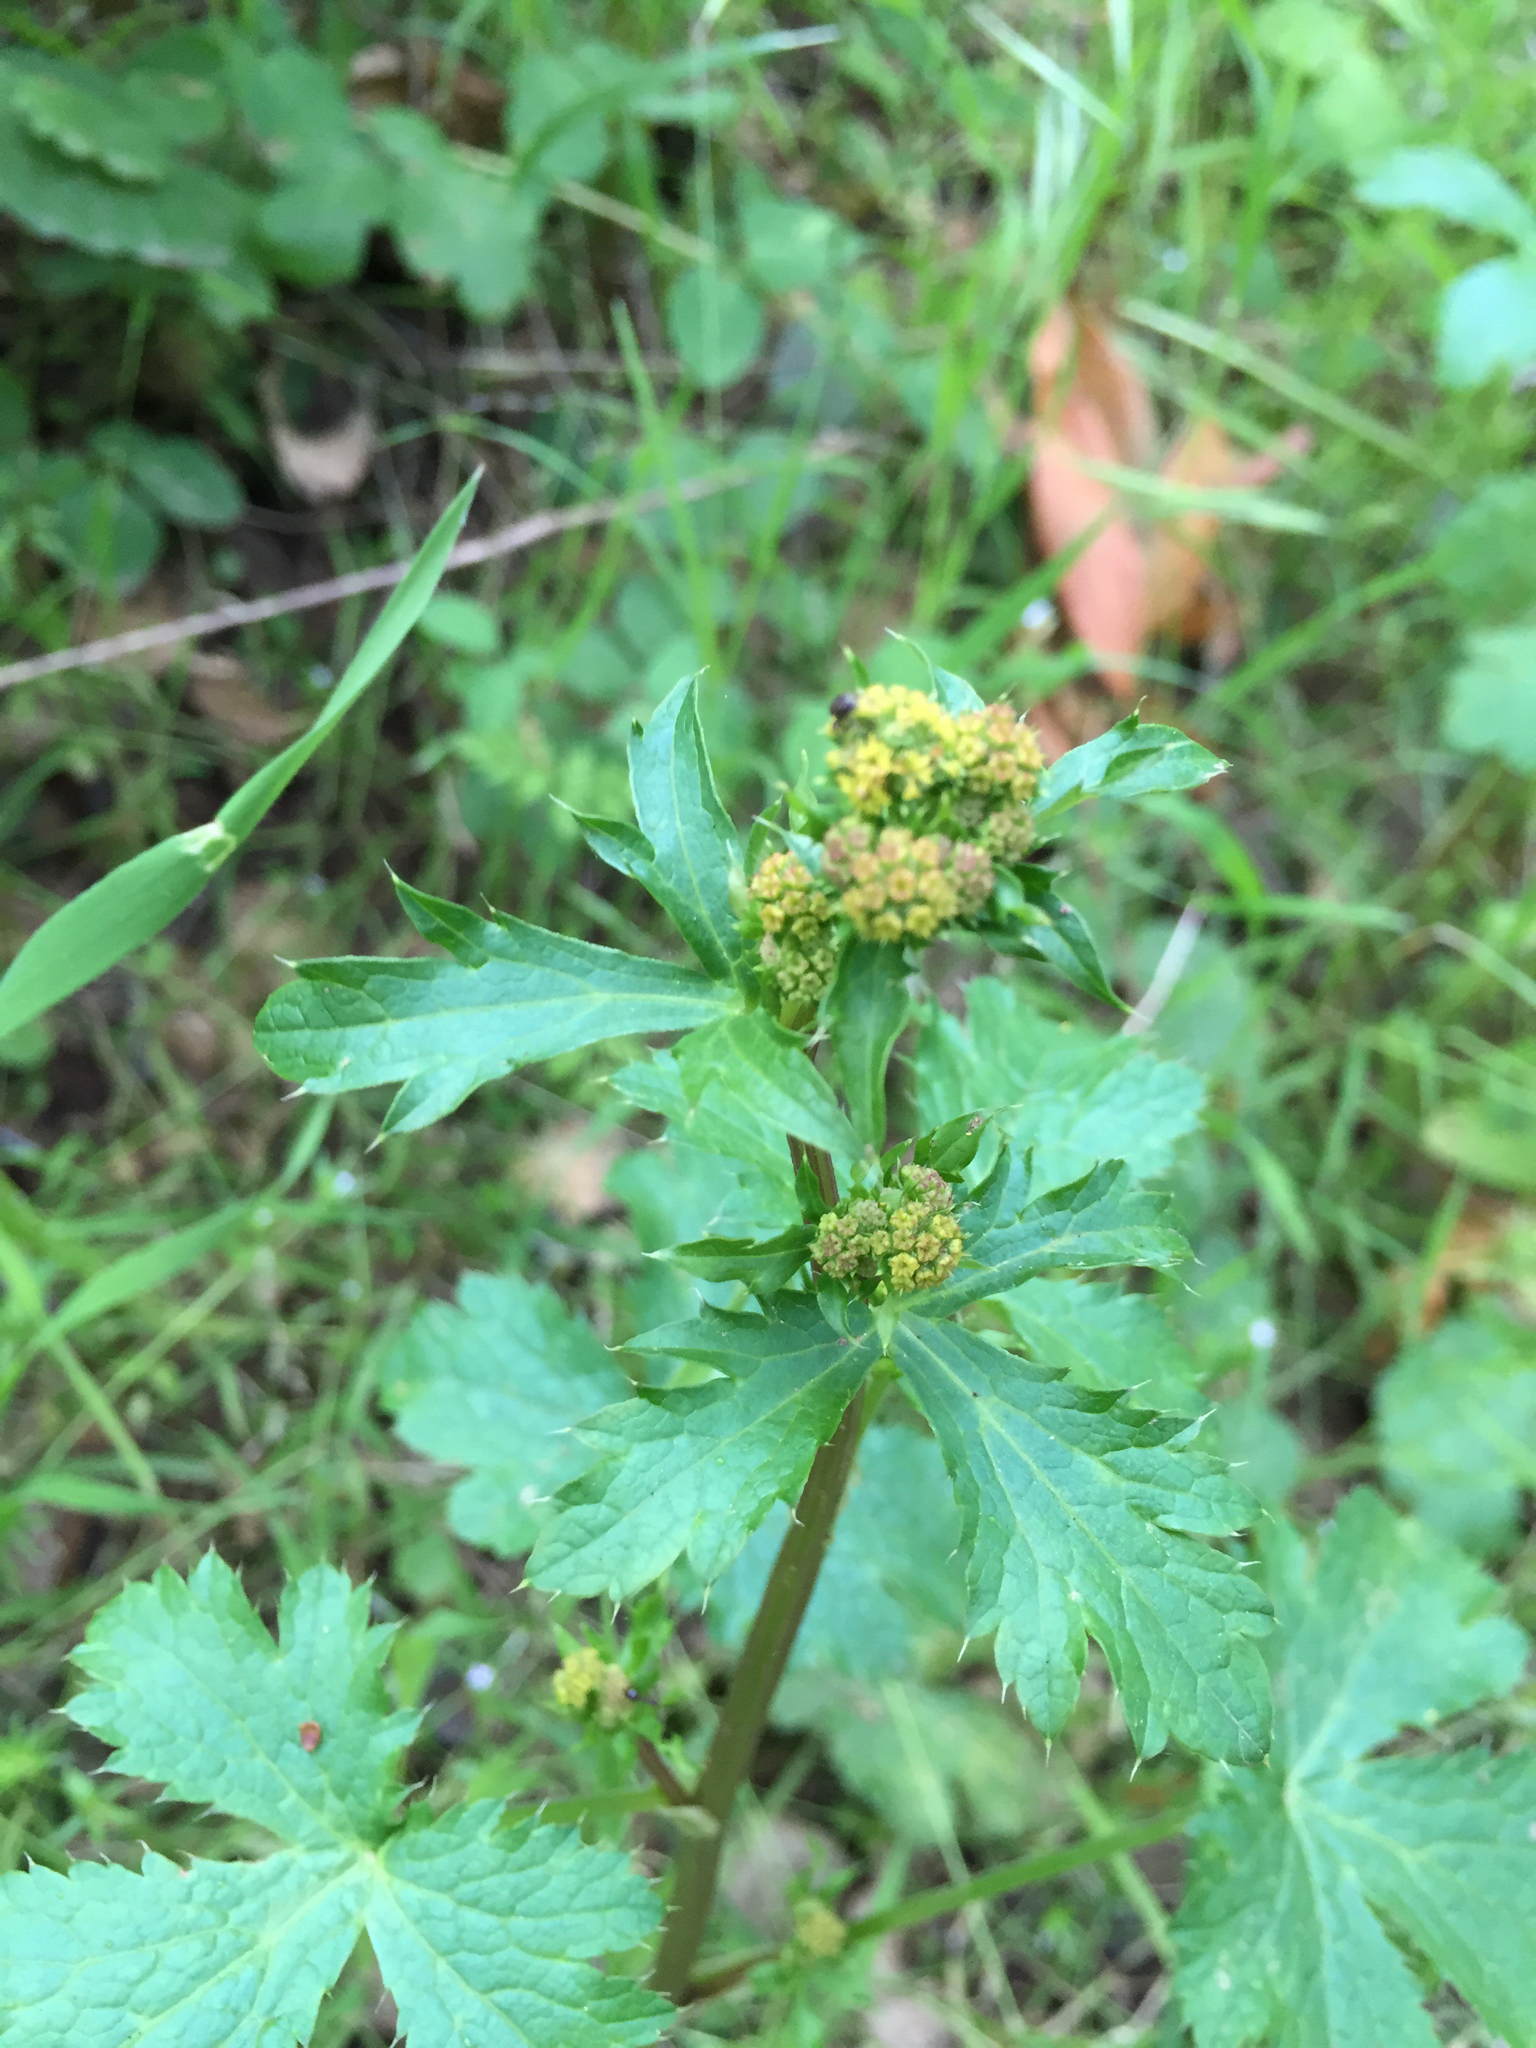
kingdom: Plantae
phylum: Tracheophyta
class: Magnoliopsida
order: Apiales
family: Apiaceae
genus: Sanicula
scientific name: Sanicula crassicaulis
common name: Western snakeroot
